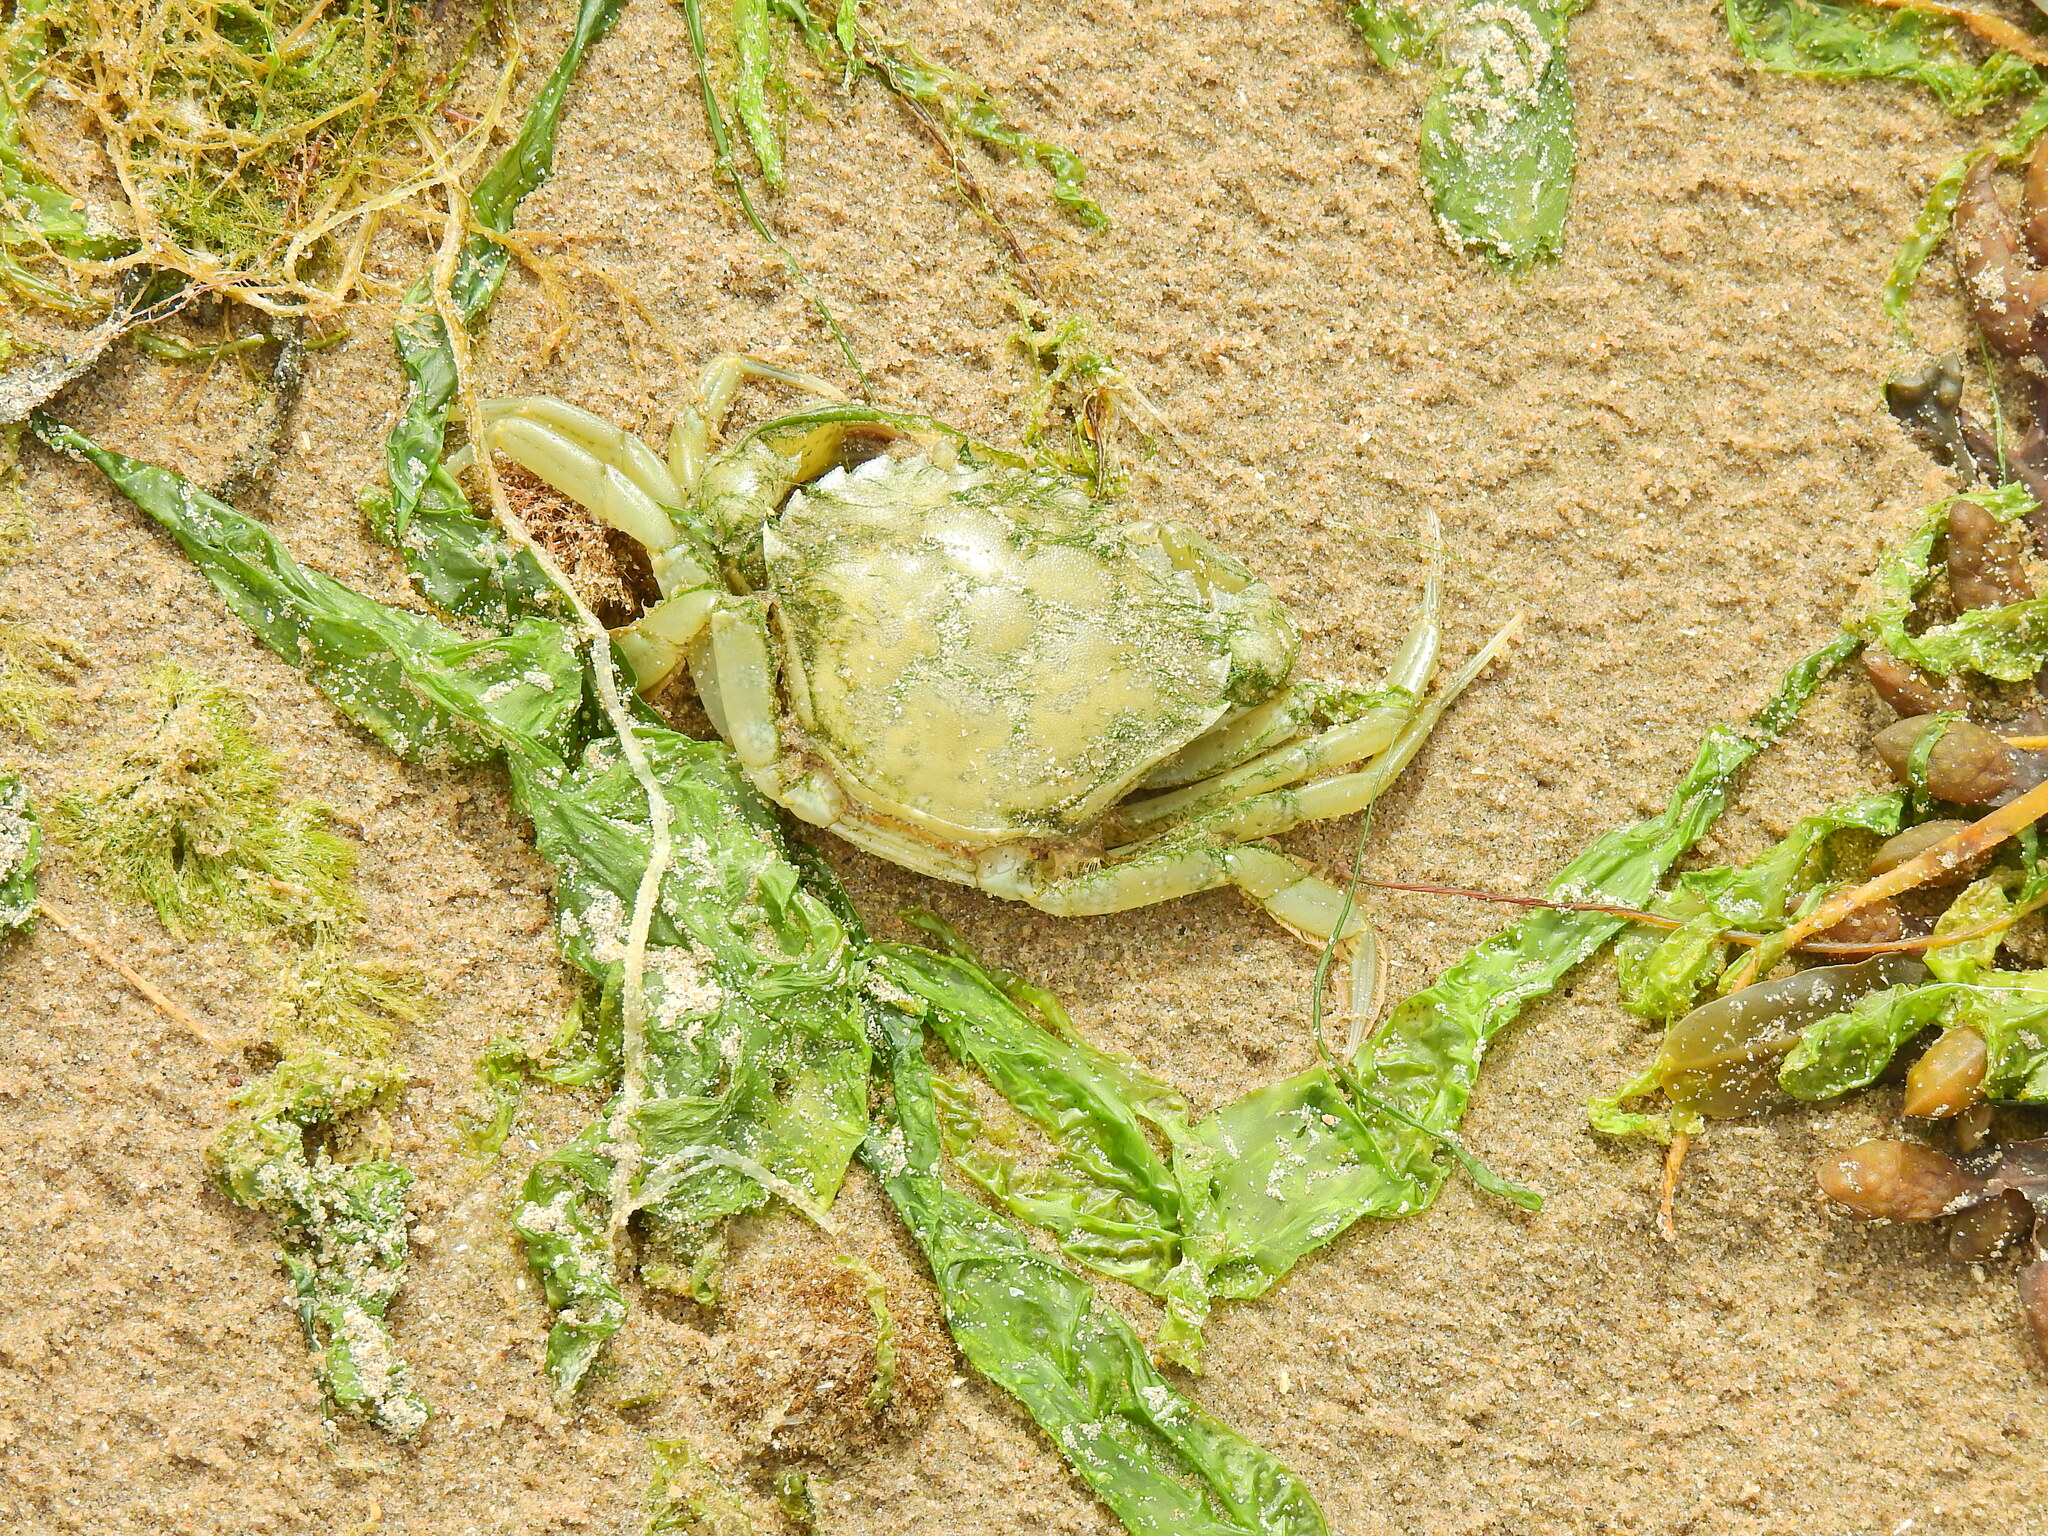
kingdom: Animalia
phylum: Arthropoda
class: Malacostraca
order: Decapoda
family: Carcinidae
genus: Carcinus
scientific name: Carcinus maenas
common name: European green crab
